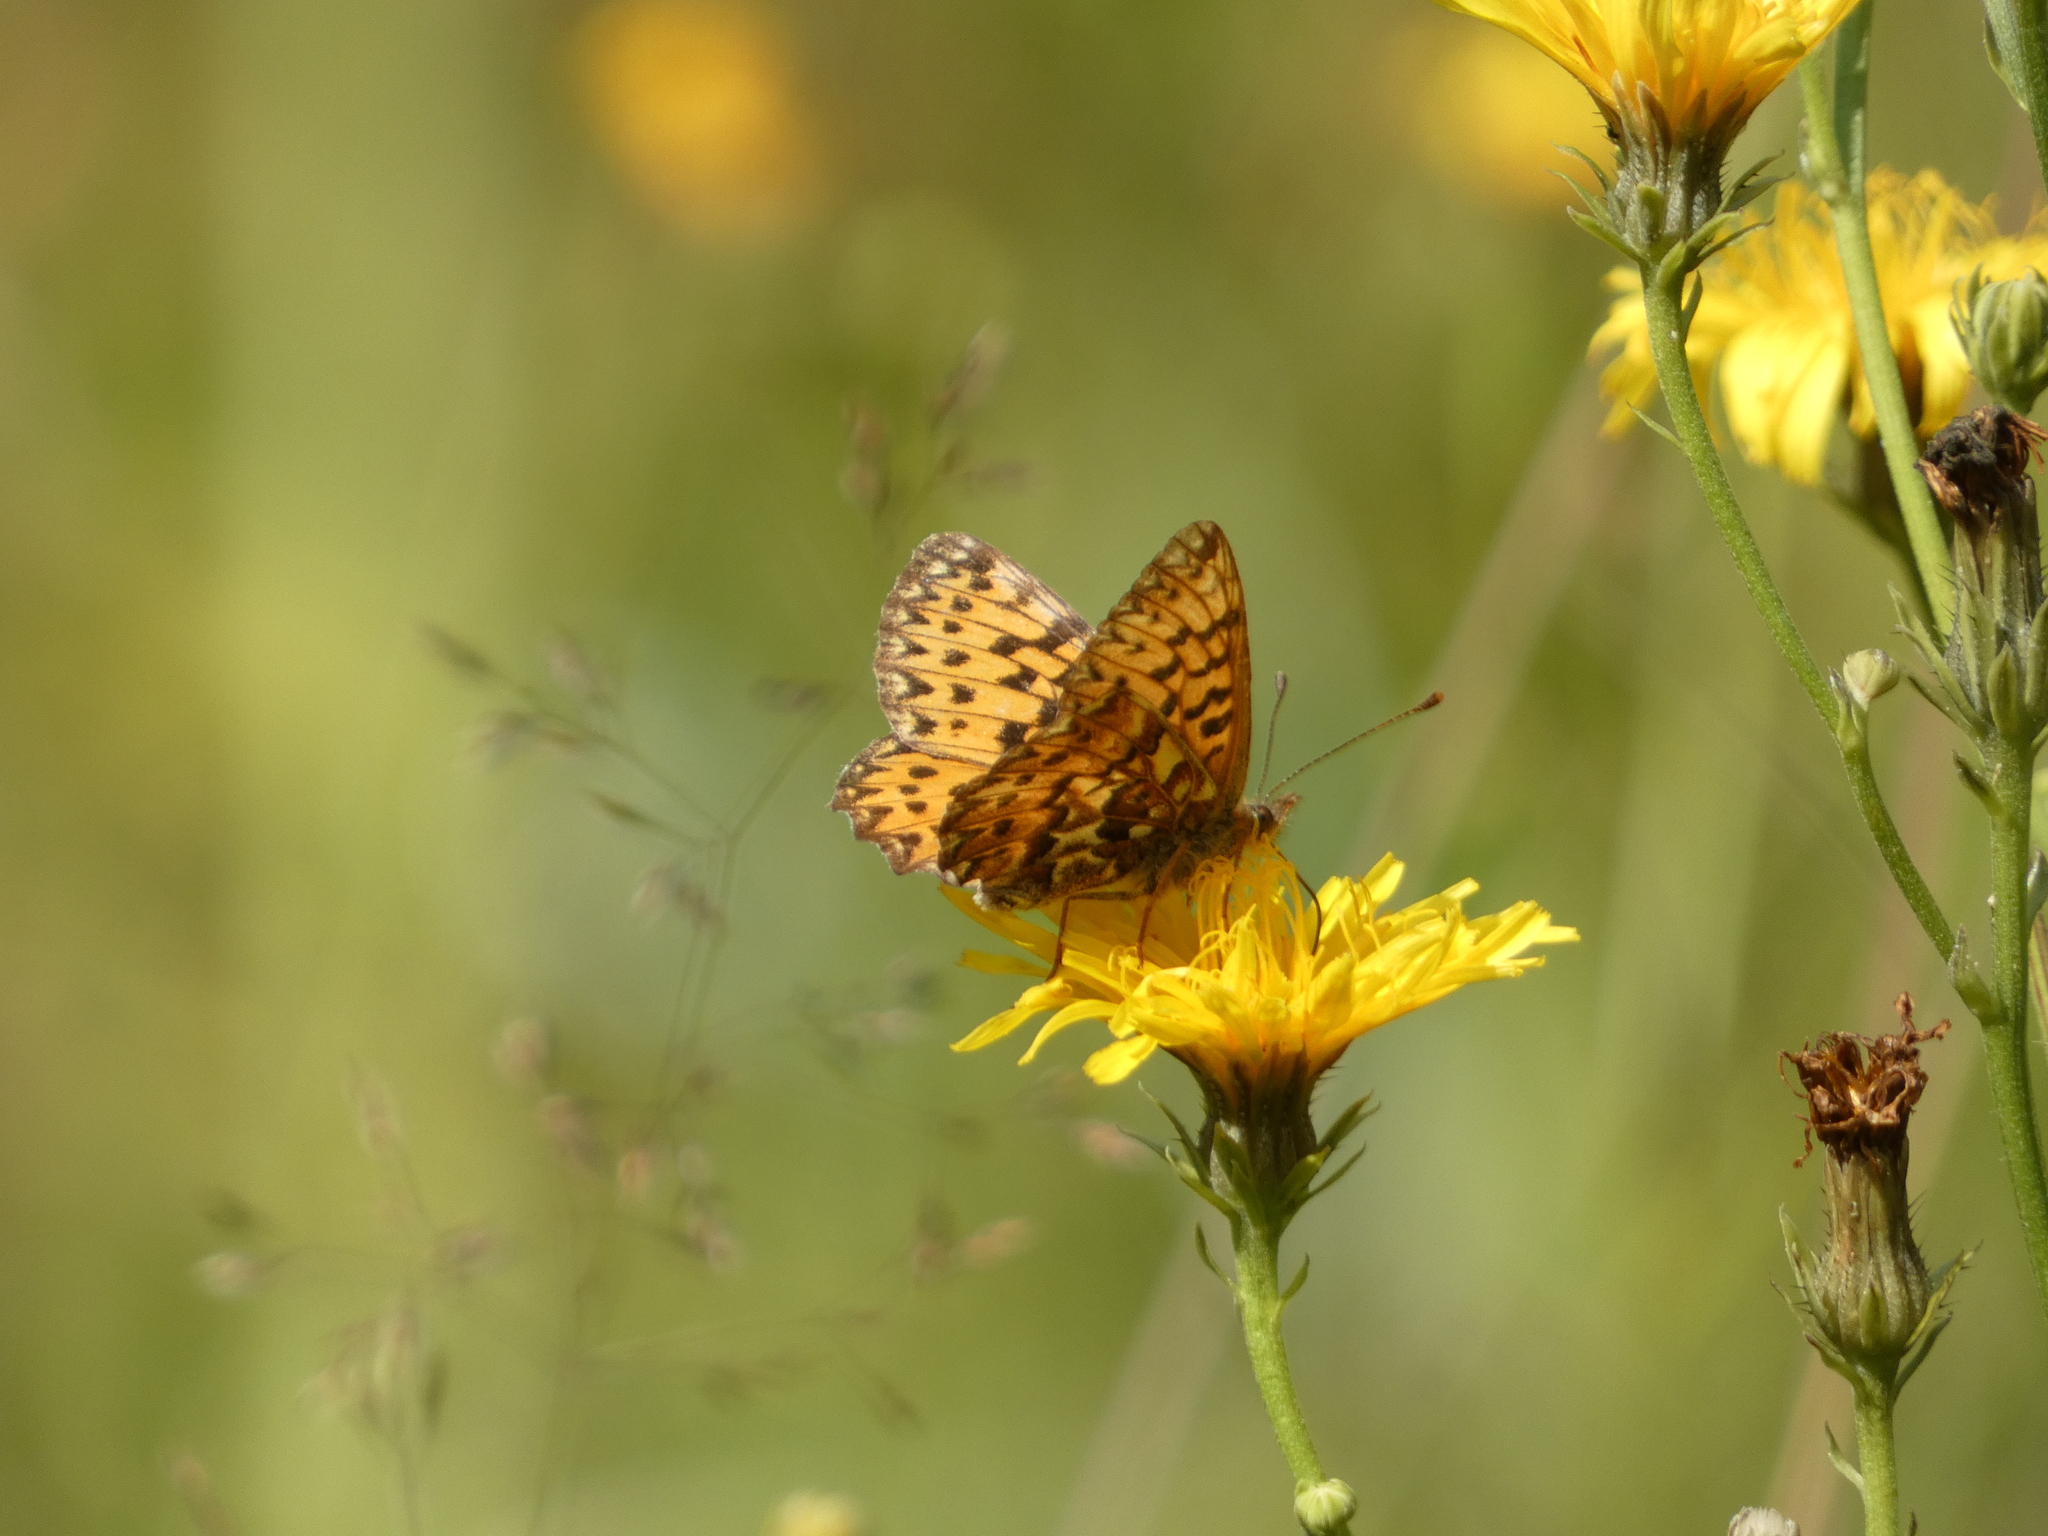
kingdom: Animalia
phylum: Arthropoda
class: Insecta
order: Lepidoptera
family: Nymphalidae
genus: Boloria
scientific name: Boloria titania
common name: Titania's fritillary
